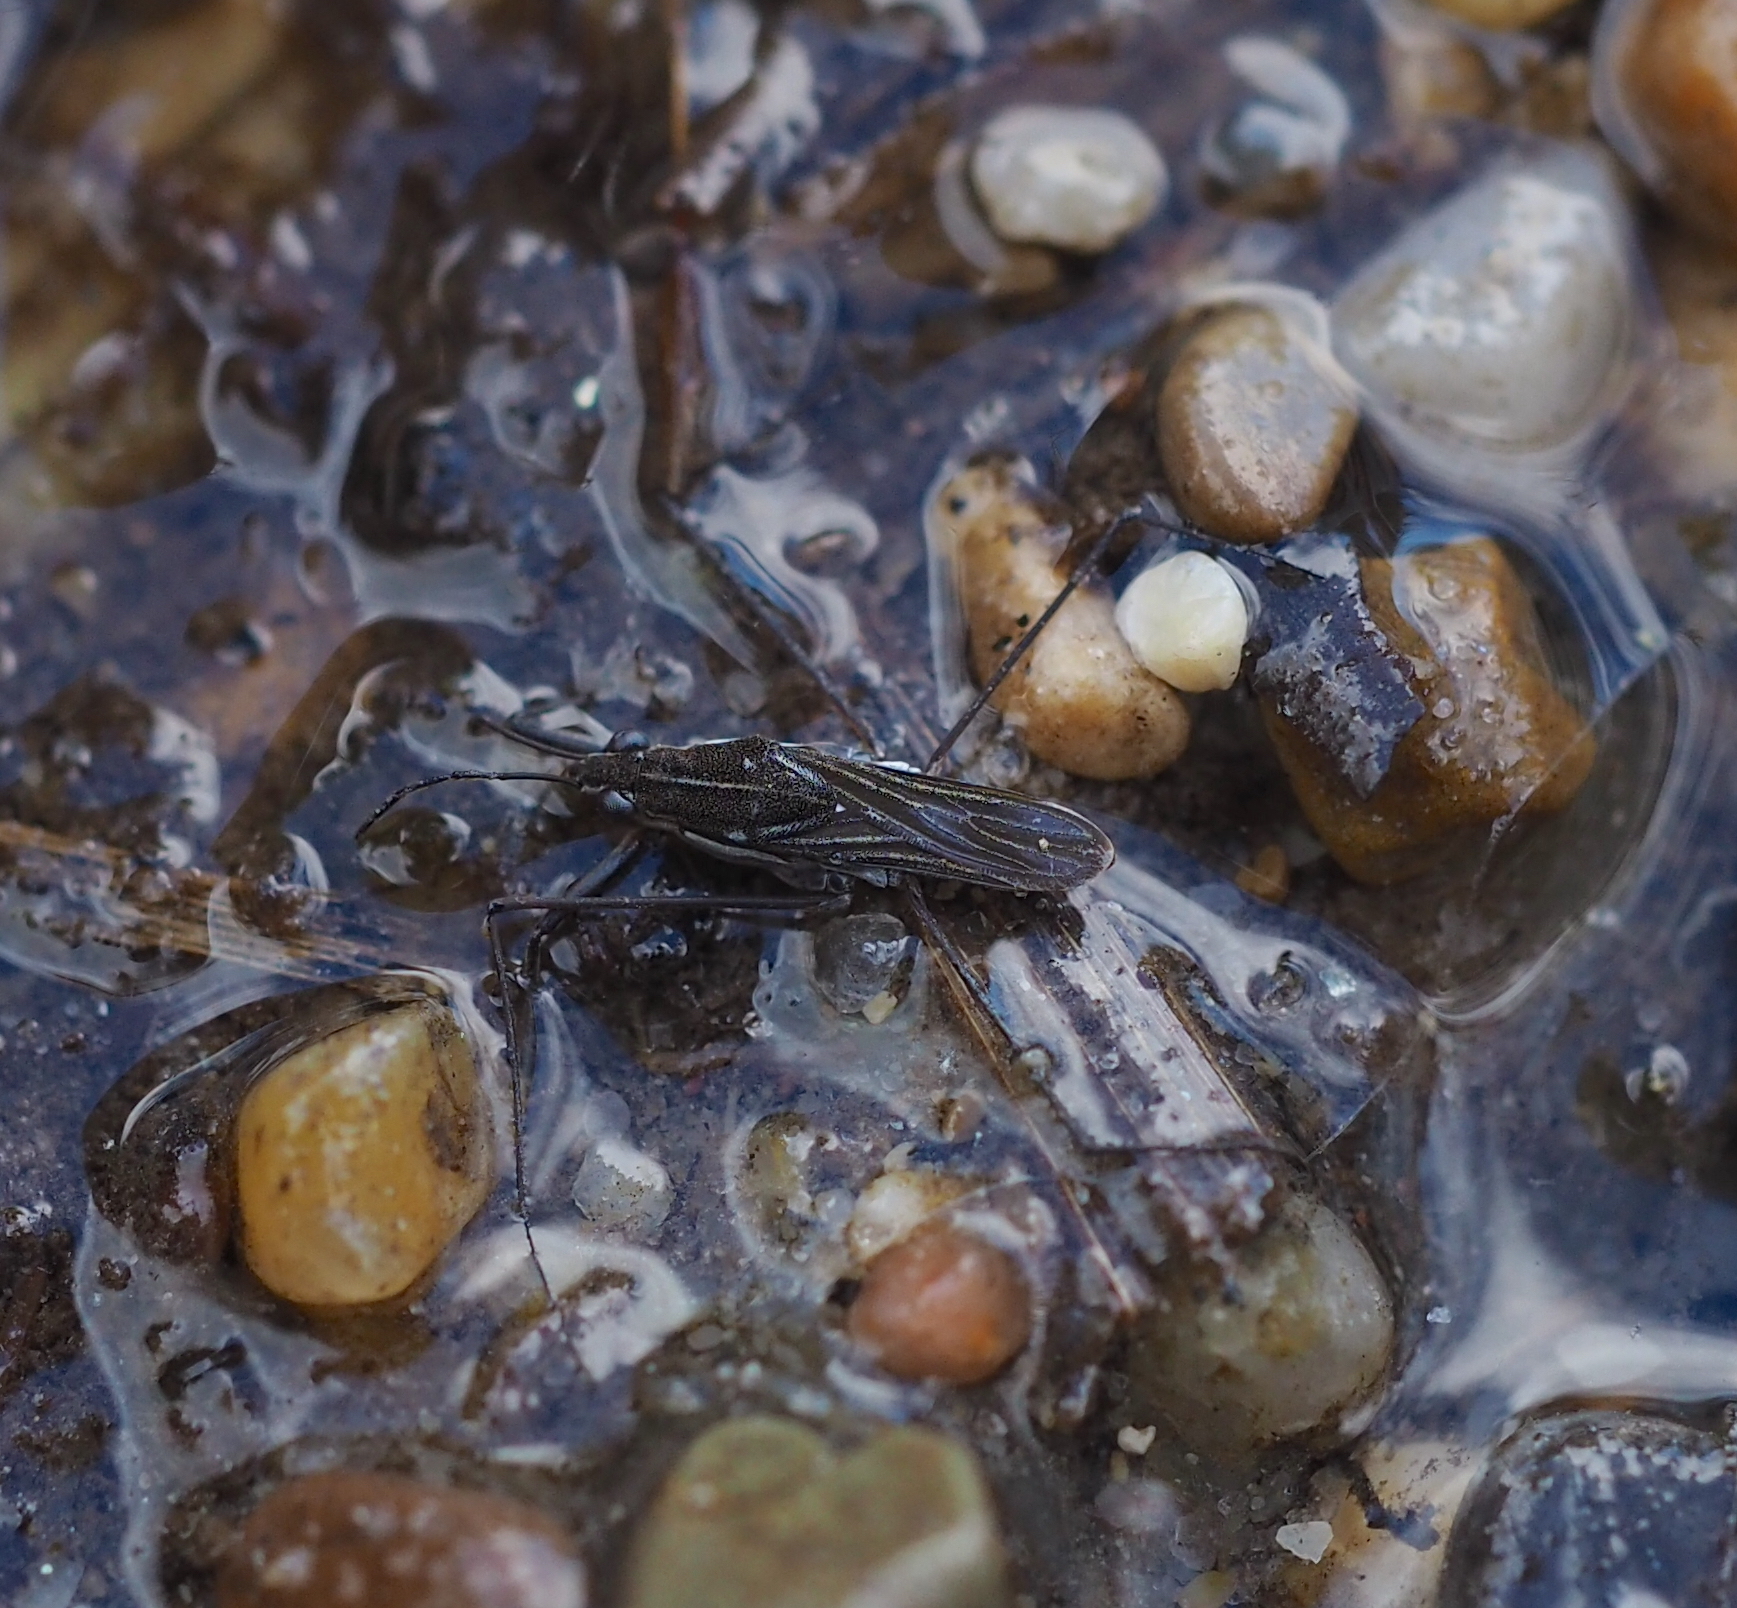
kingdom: Animalia
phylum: Arthropoda
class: Insecta
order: Hemiptera
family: Gerridae
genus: Gerris
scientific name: Gerris argentatus
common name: Little pondskater
